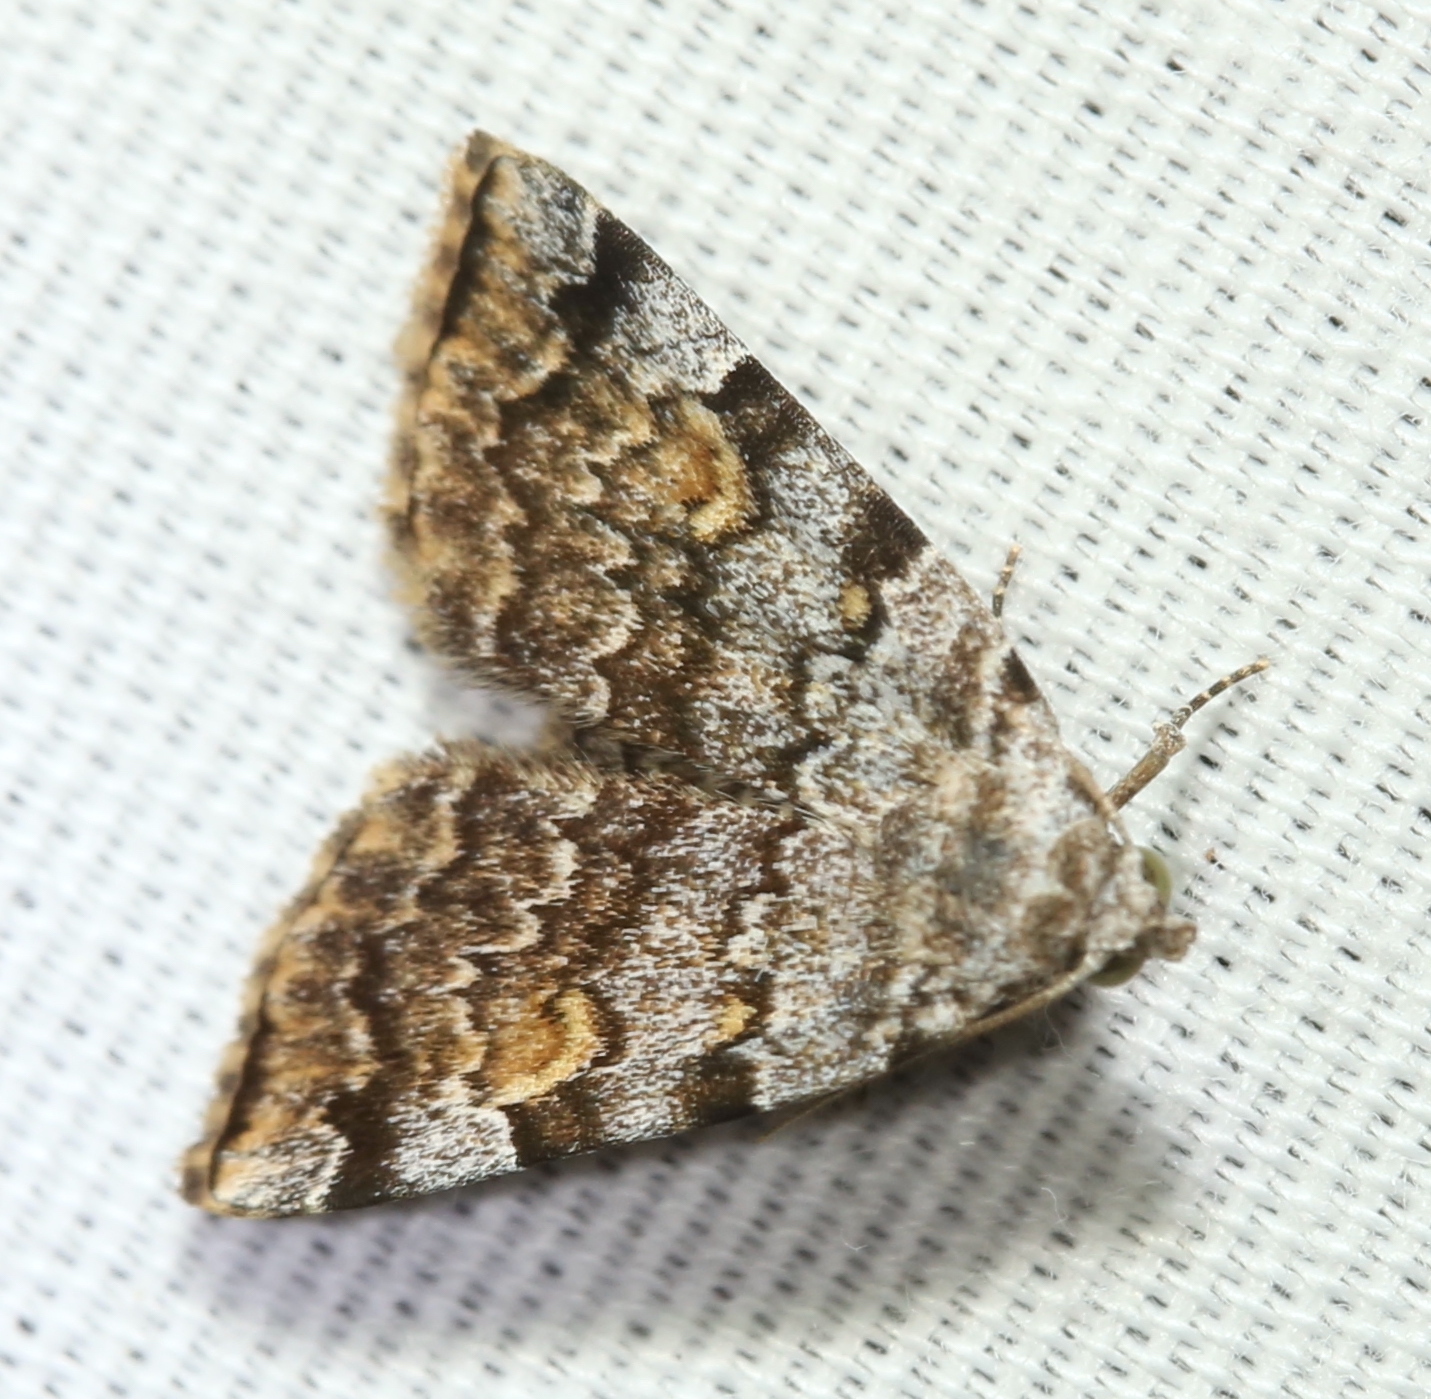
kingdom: Animalia
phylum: Arthropoda
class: Insecta
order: Lepidoptera
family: Erebidae
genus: Idia
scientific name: Idia americalis
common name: American idia moth
